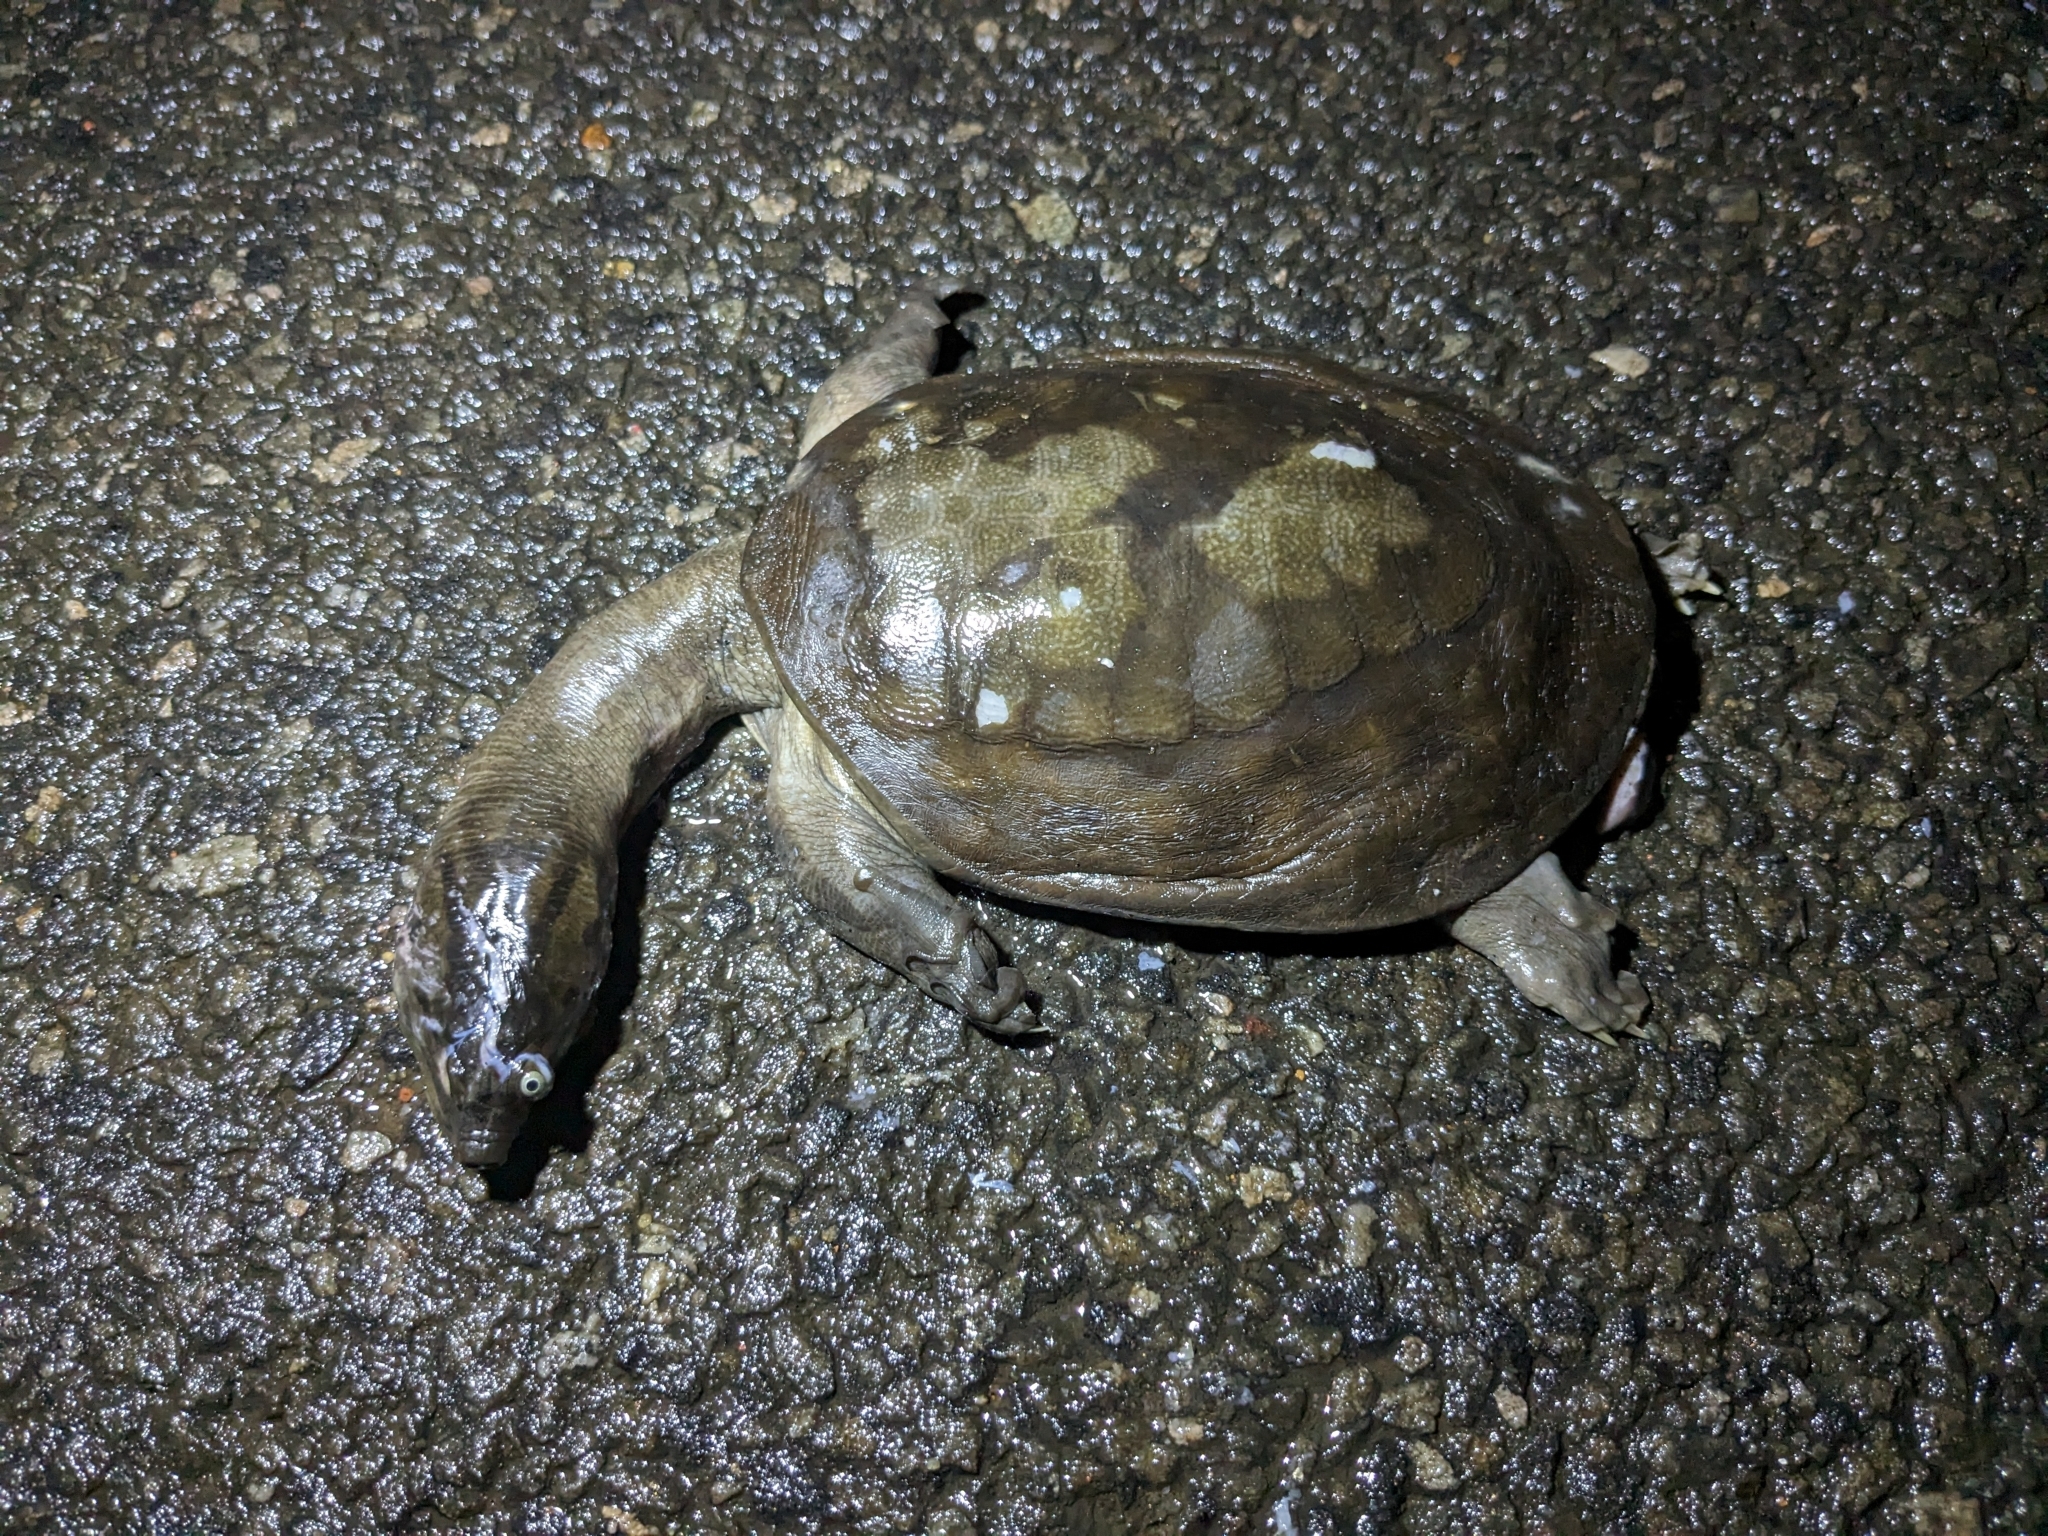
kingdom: Animalia
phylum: Chordata
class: Testudines
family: Trionychidae
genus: Lissemys
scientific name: Lissemys punctata
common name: Indian flap-shelled turtle
